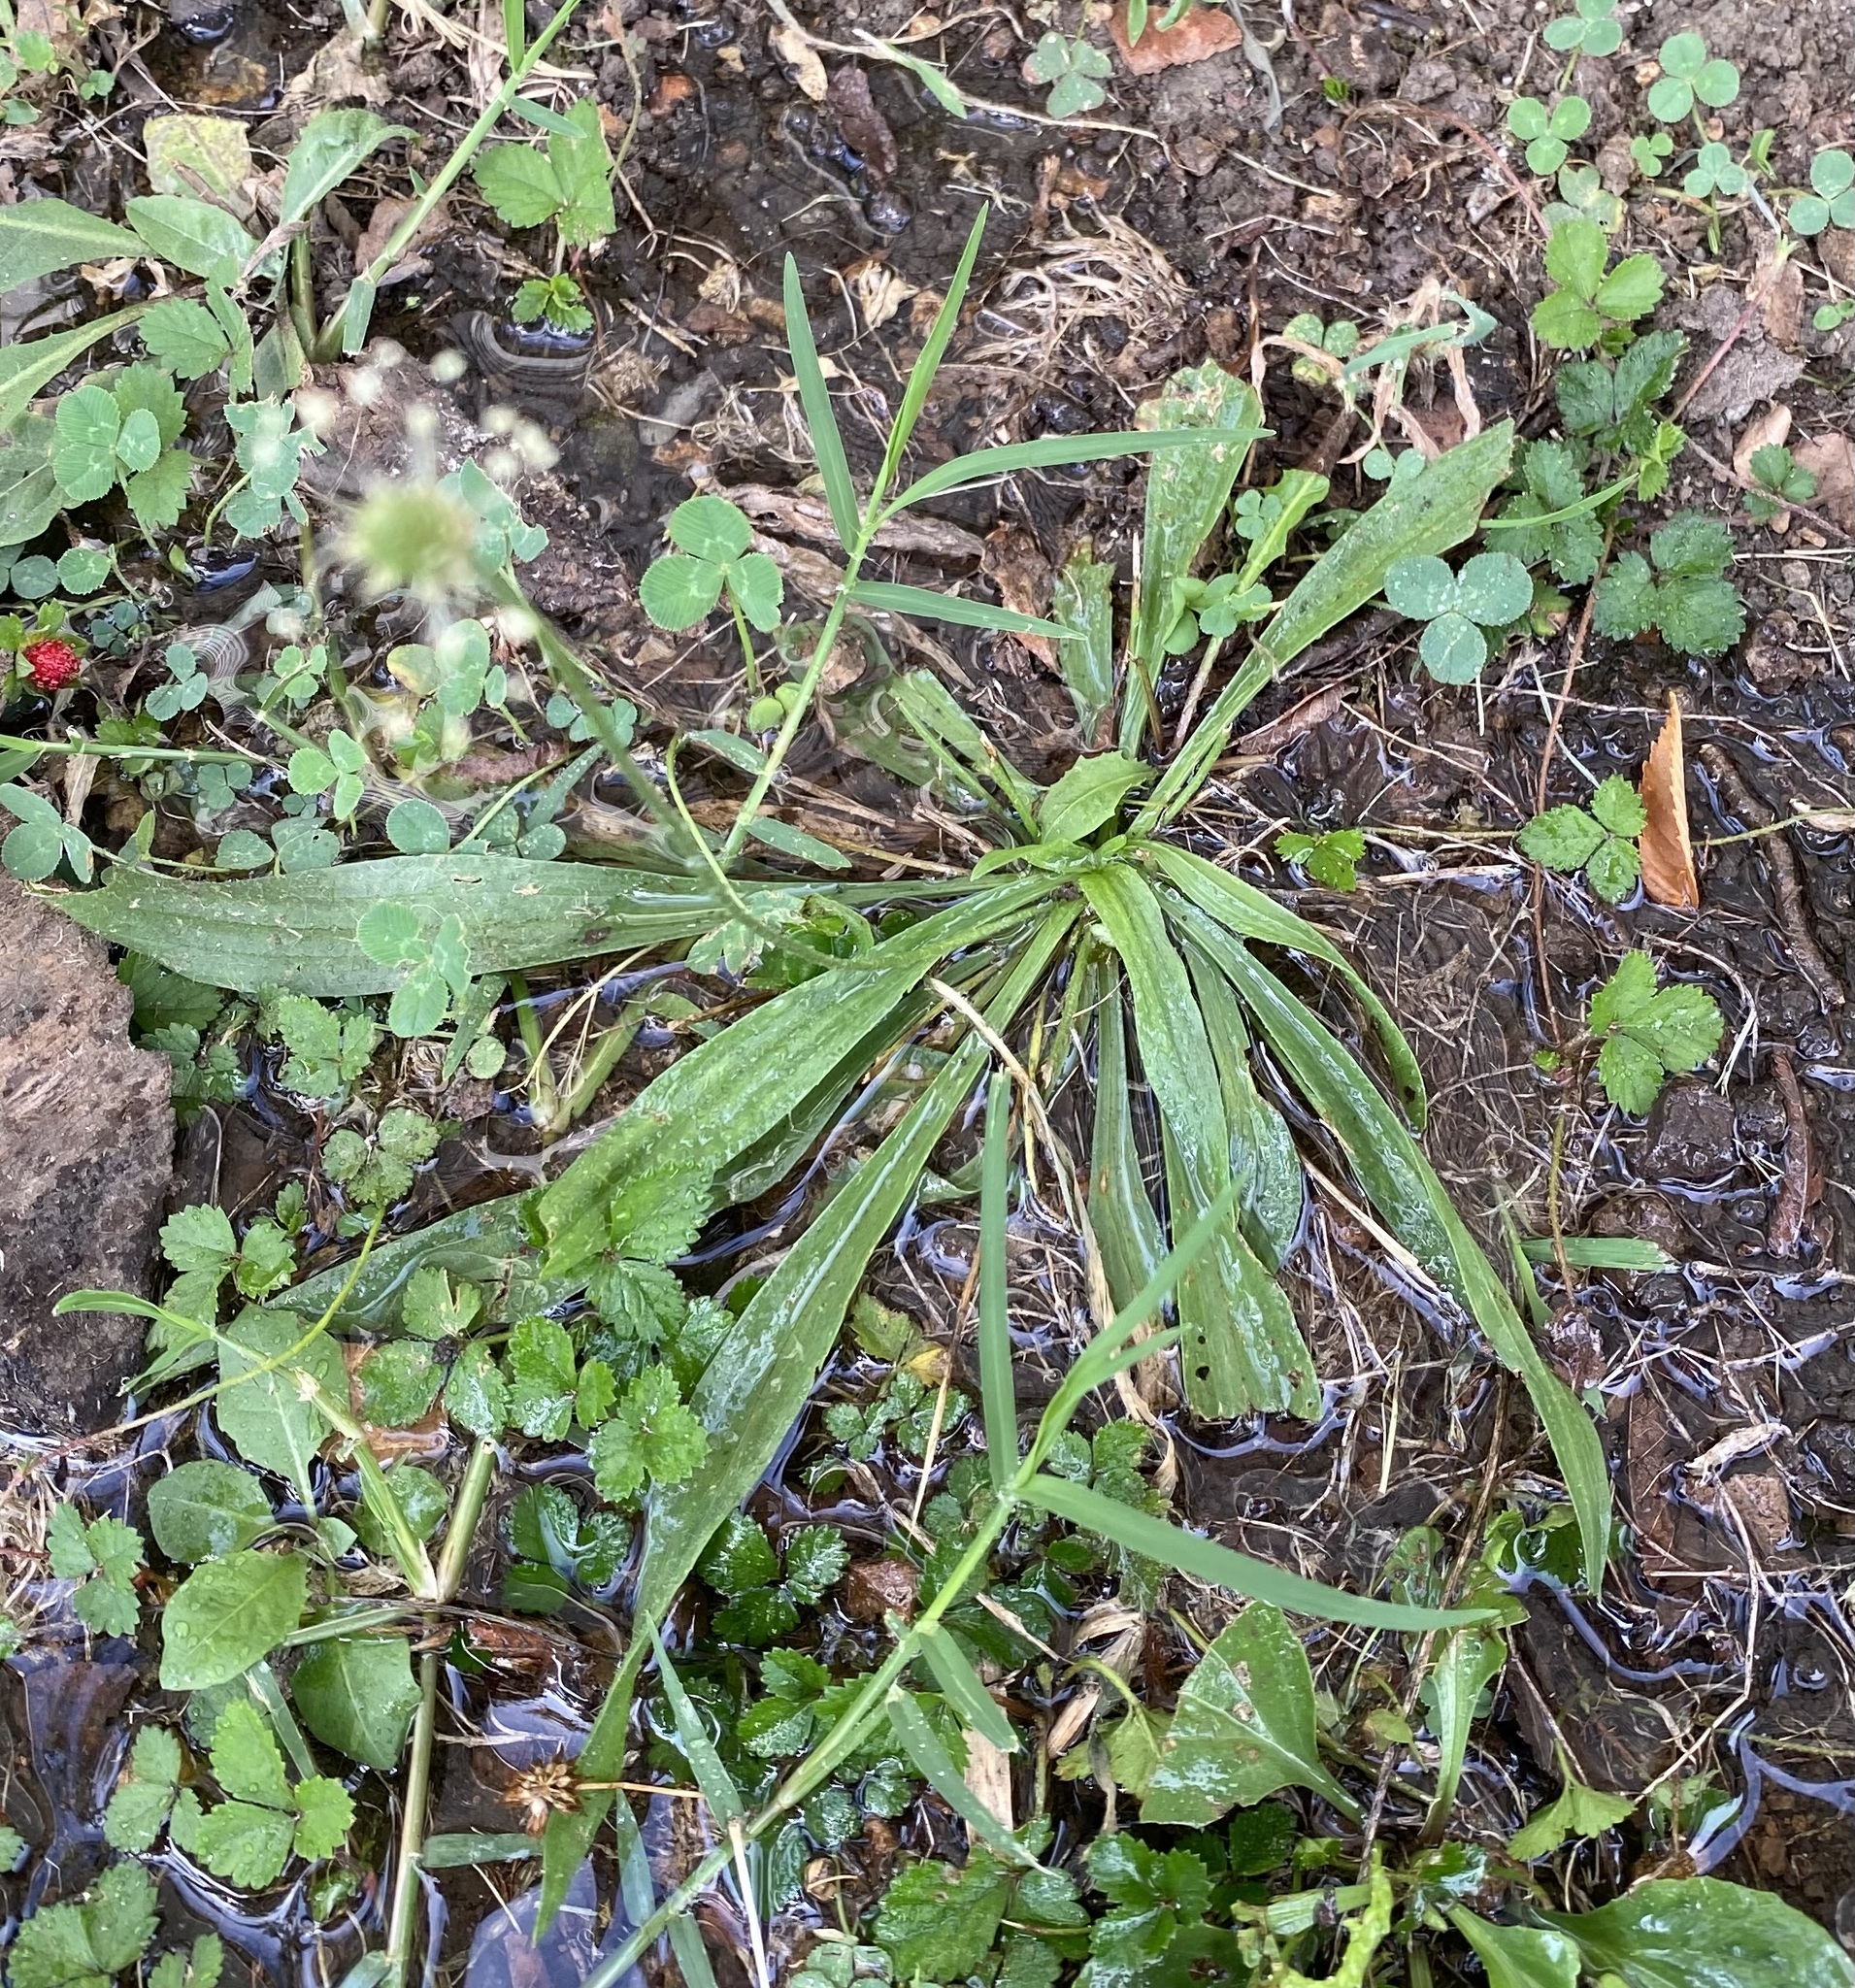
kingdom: Plantae
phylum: Tracheophyta
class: Magnoliopsida
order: Lamiales
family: Plantaginaceae
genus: Plantago
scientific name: Plantago lanceolata
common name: Ribwort plantain
